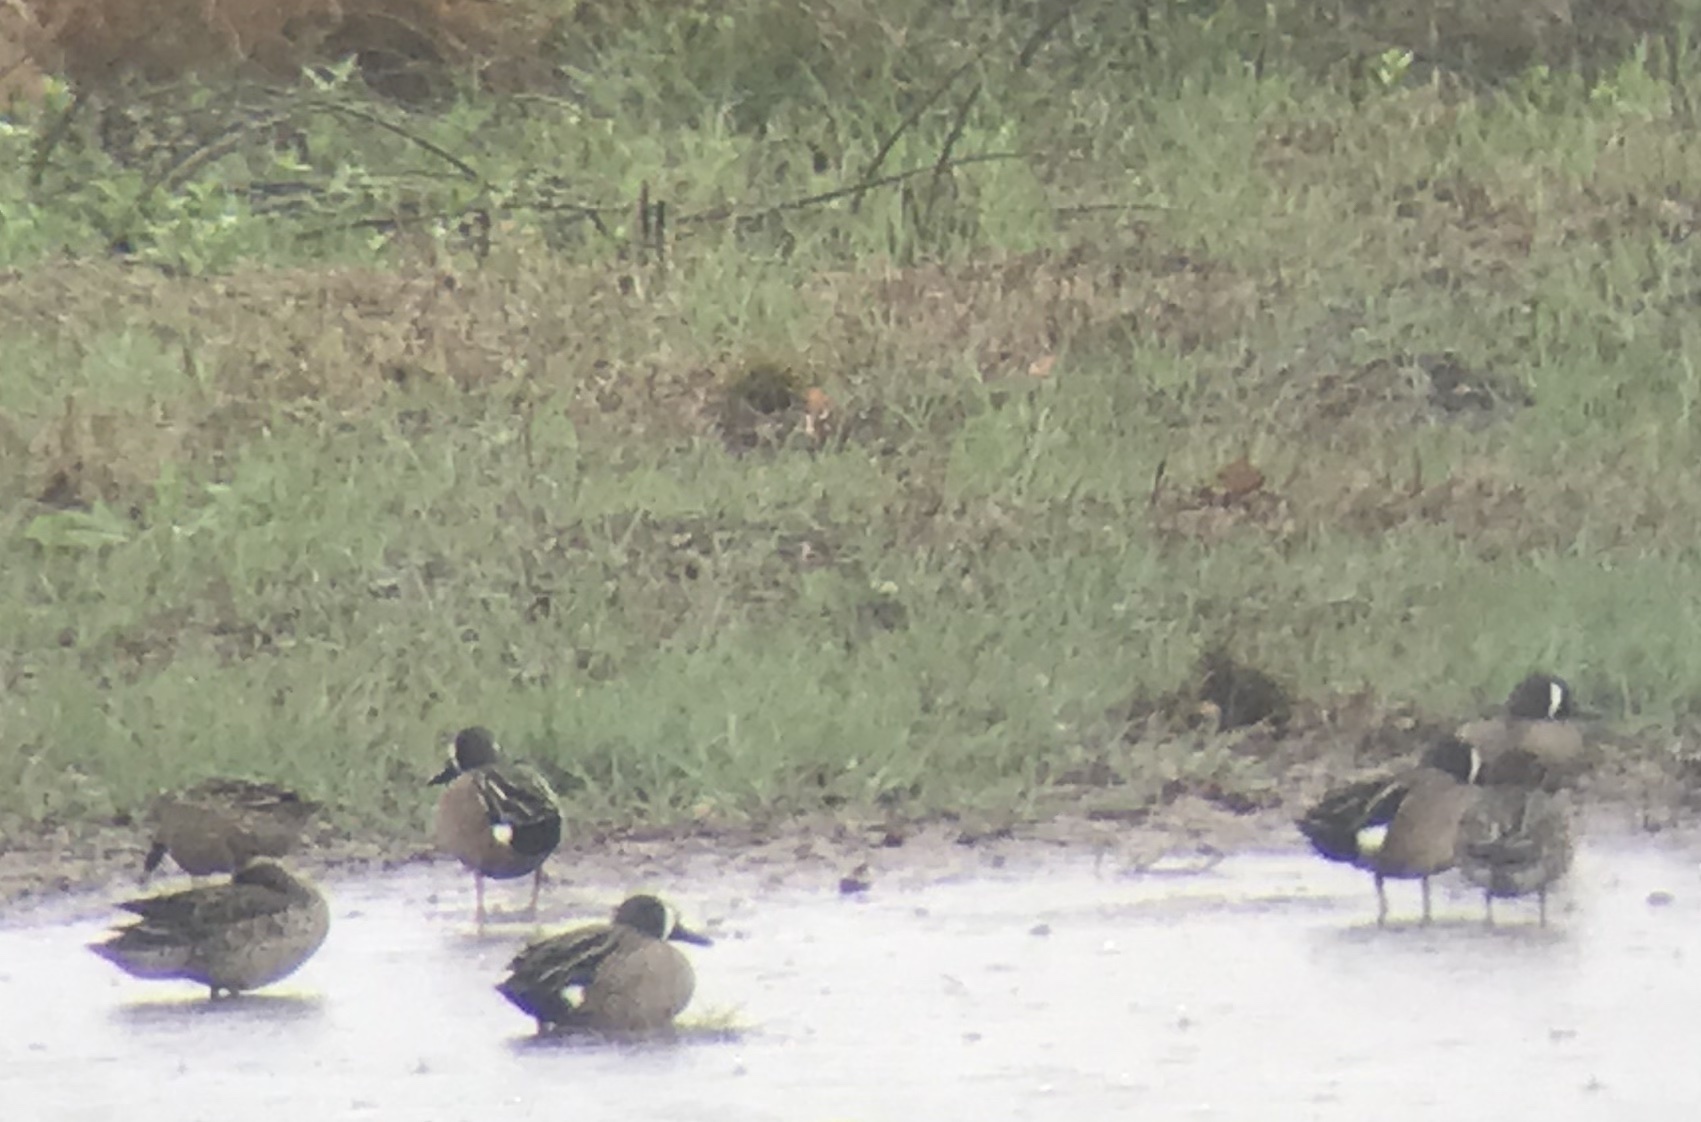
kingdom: Animalia
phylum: Chordata
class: Aves
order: Anseriformes
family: Anatidae
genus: Spatula
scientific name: Spatula discors
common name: Blue-winged teal
